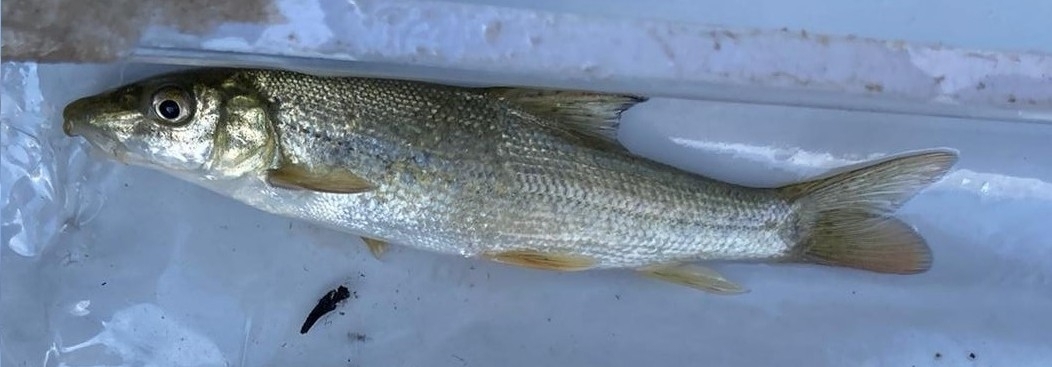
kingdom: Animalia
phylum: Chordata
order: Cypriniformes
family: Cyprinidae
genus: Barbus
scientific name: Barbus barbus
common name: Barbel
